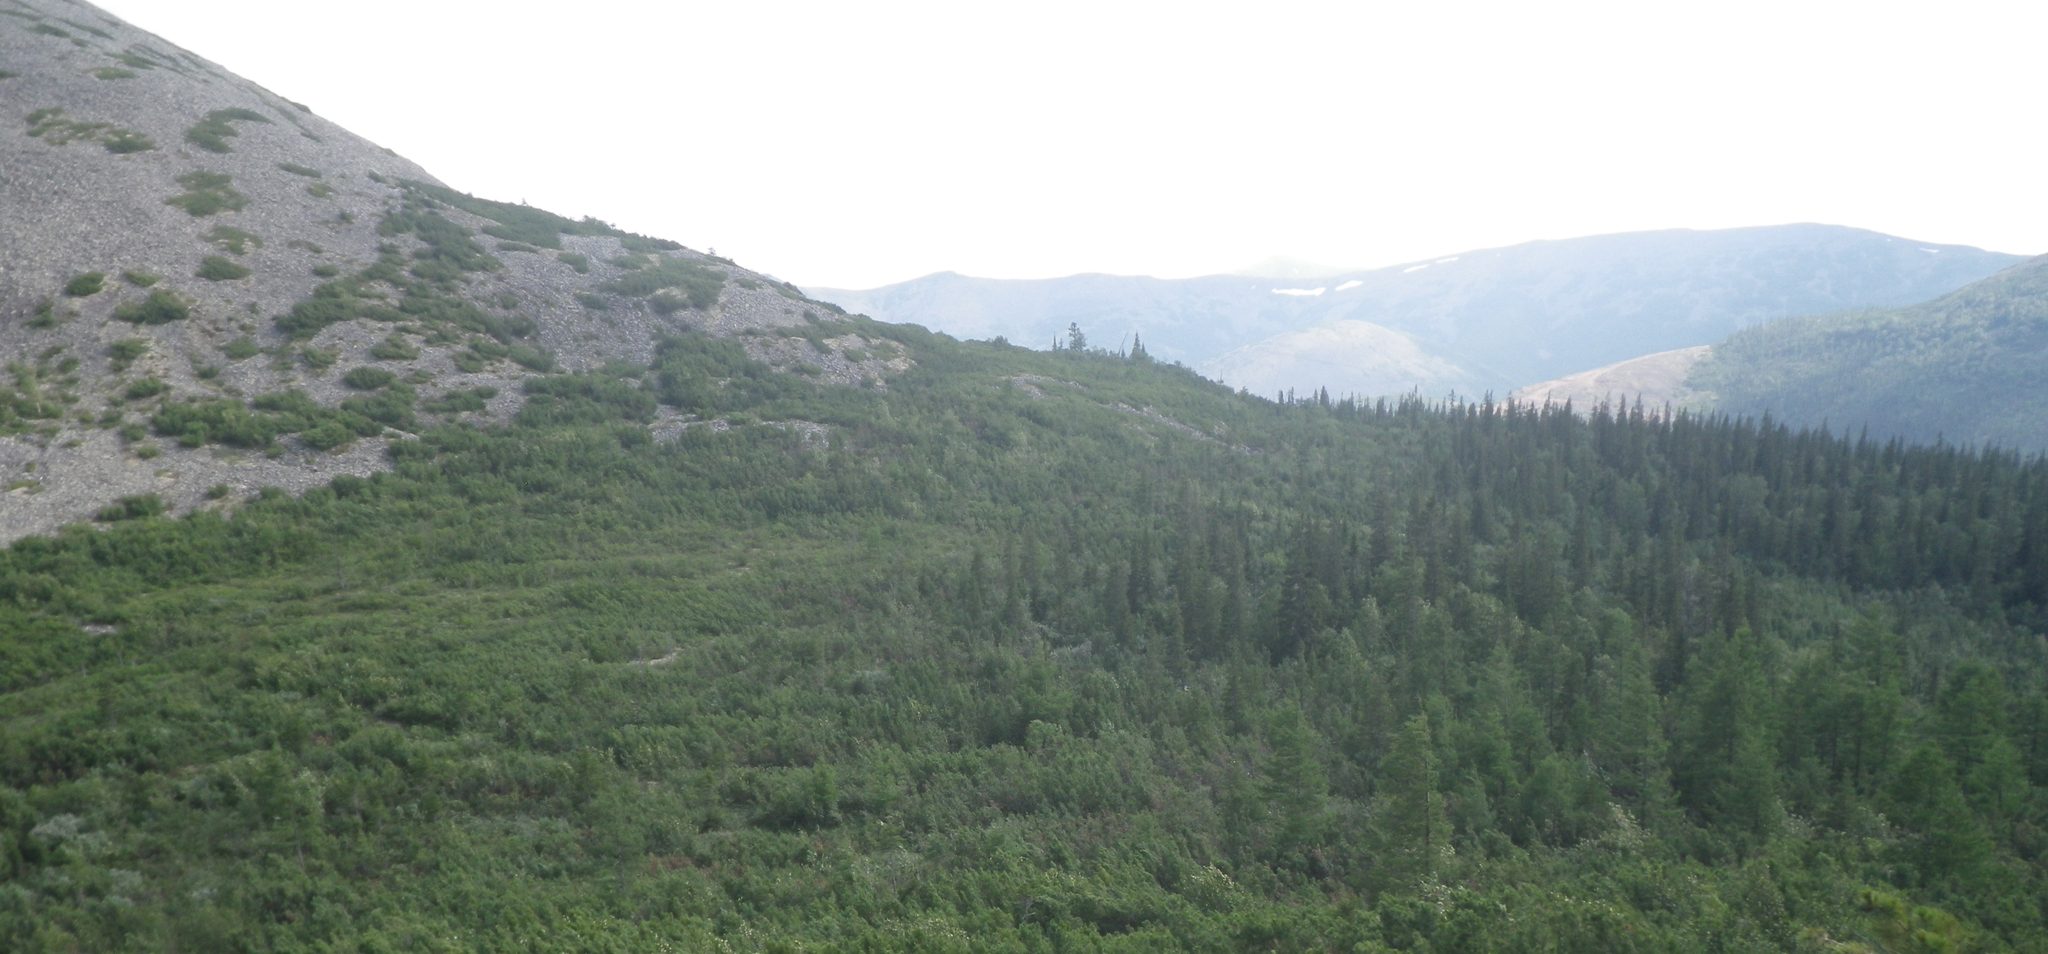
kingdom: Plantae
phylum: Tracheophyta
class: Pinopsida
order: Pinales
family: Pinaceae
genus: Picea
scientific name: Picea obovata
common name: Siberian spruce
